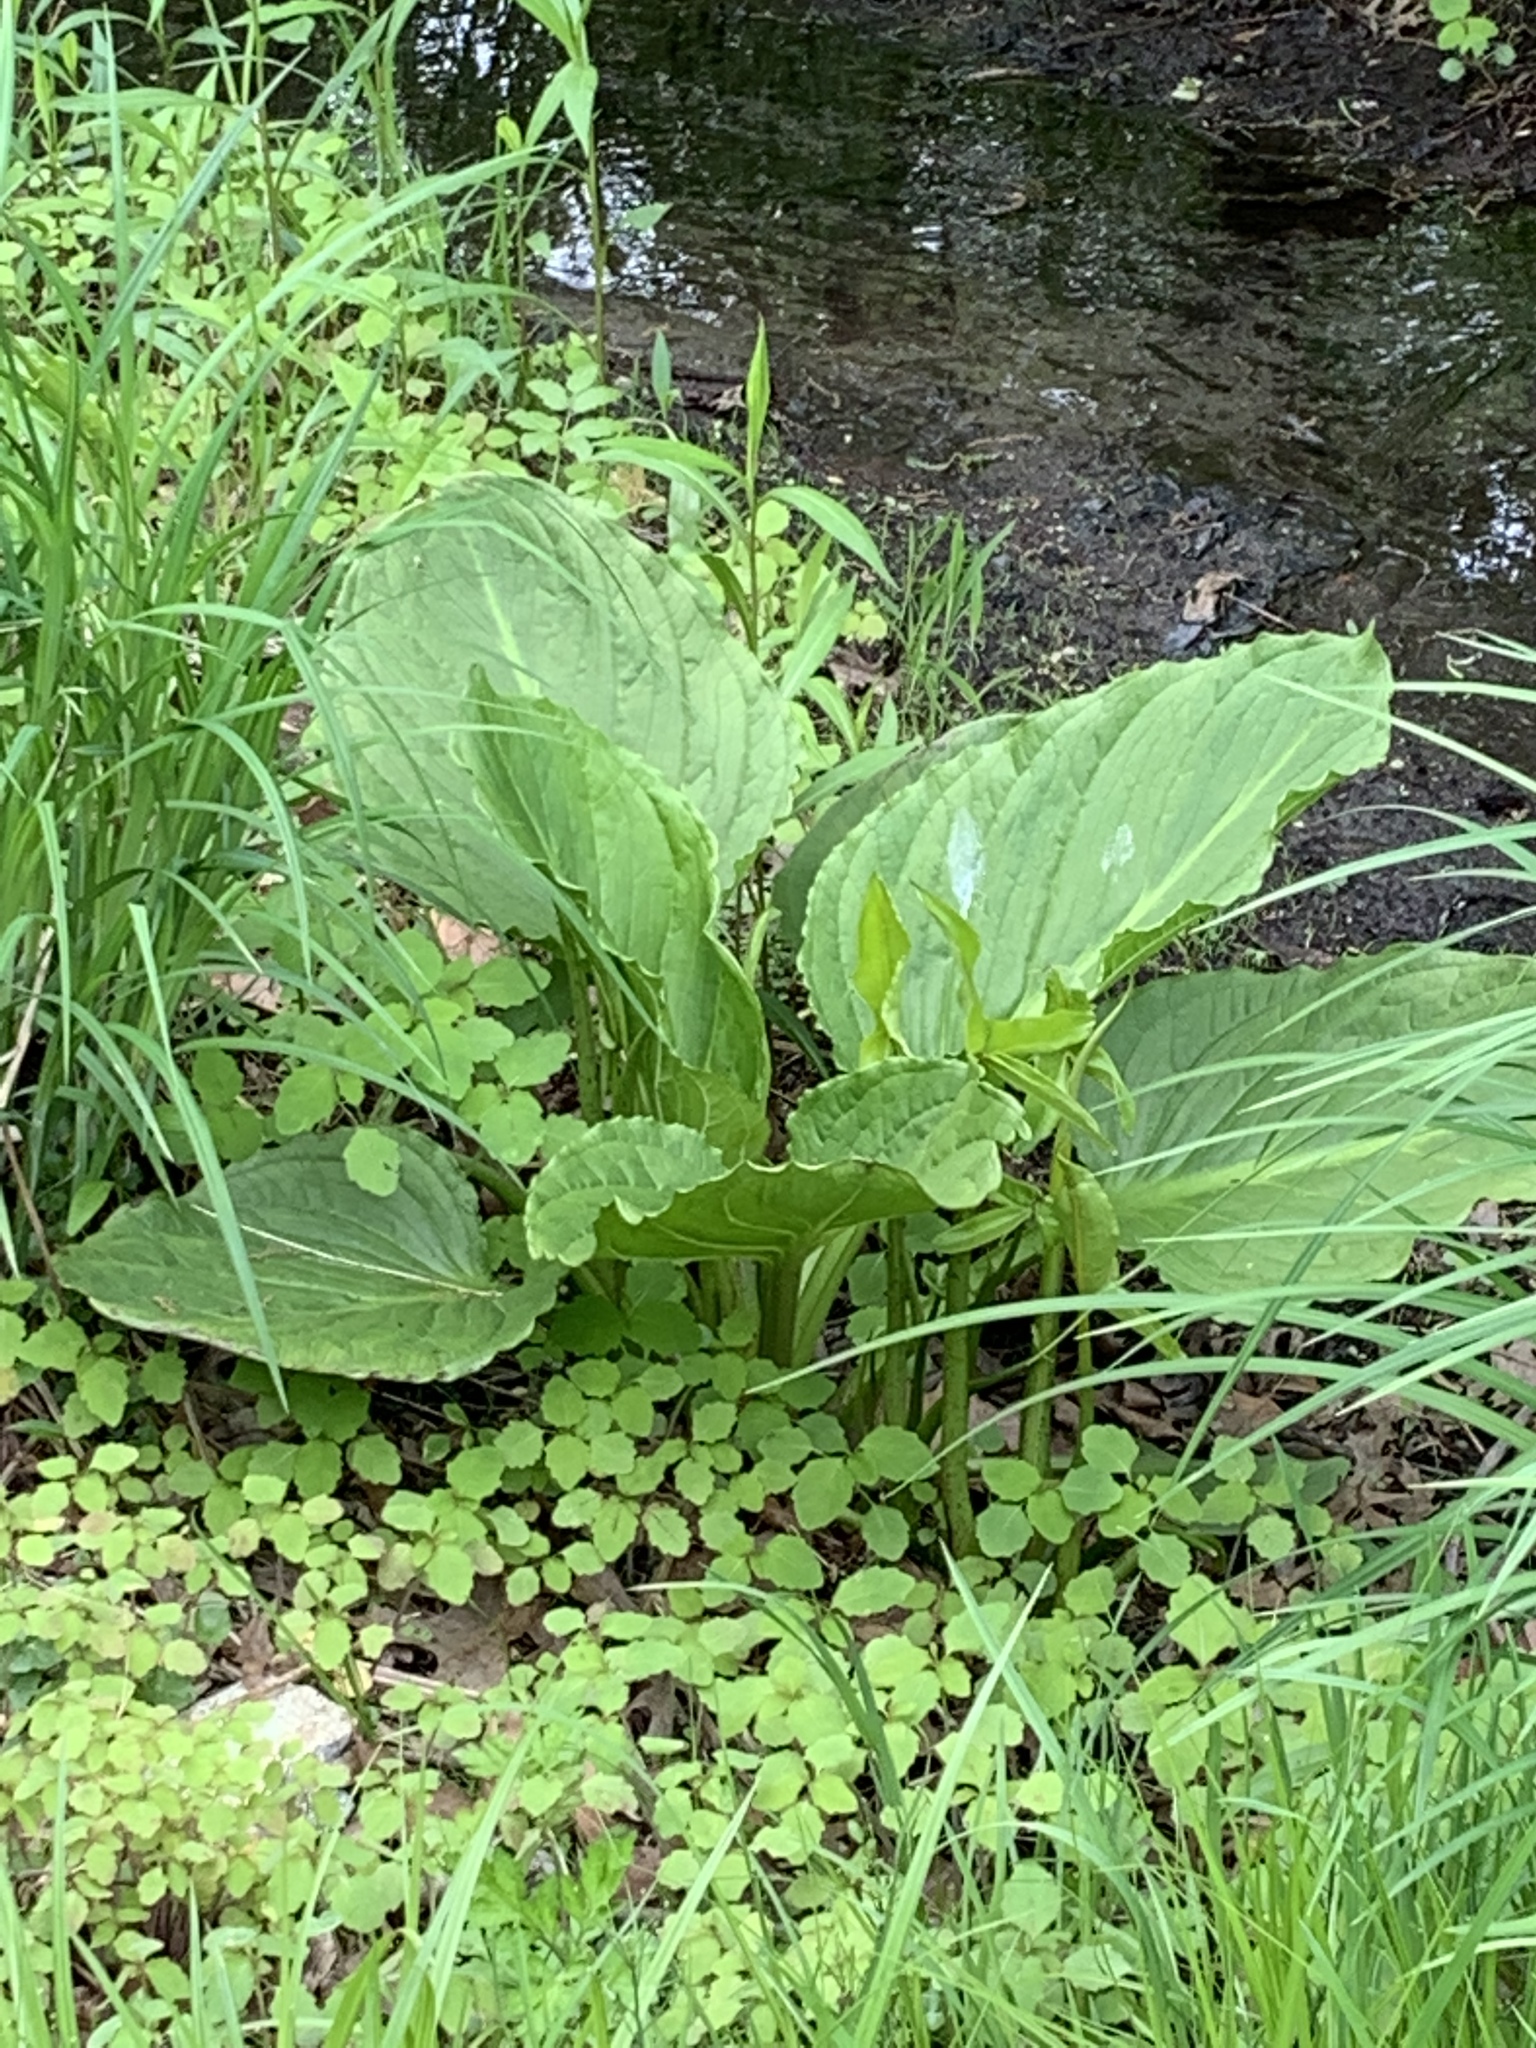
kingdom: Plantae
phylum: Tracheophyta
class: Liliopsida
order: Alismatales
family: Araceae
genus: Symplocarpus
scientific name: Symplocarpus foetidus
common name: Eastern skunk cabbage
